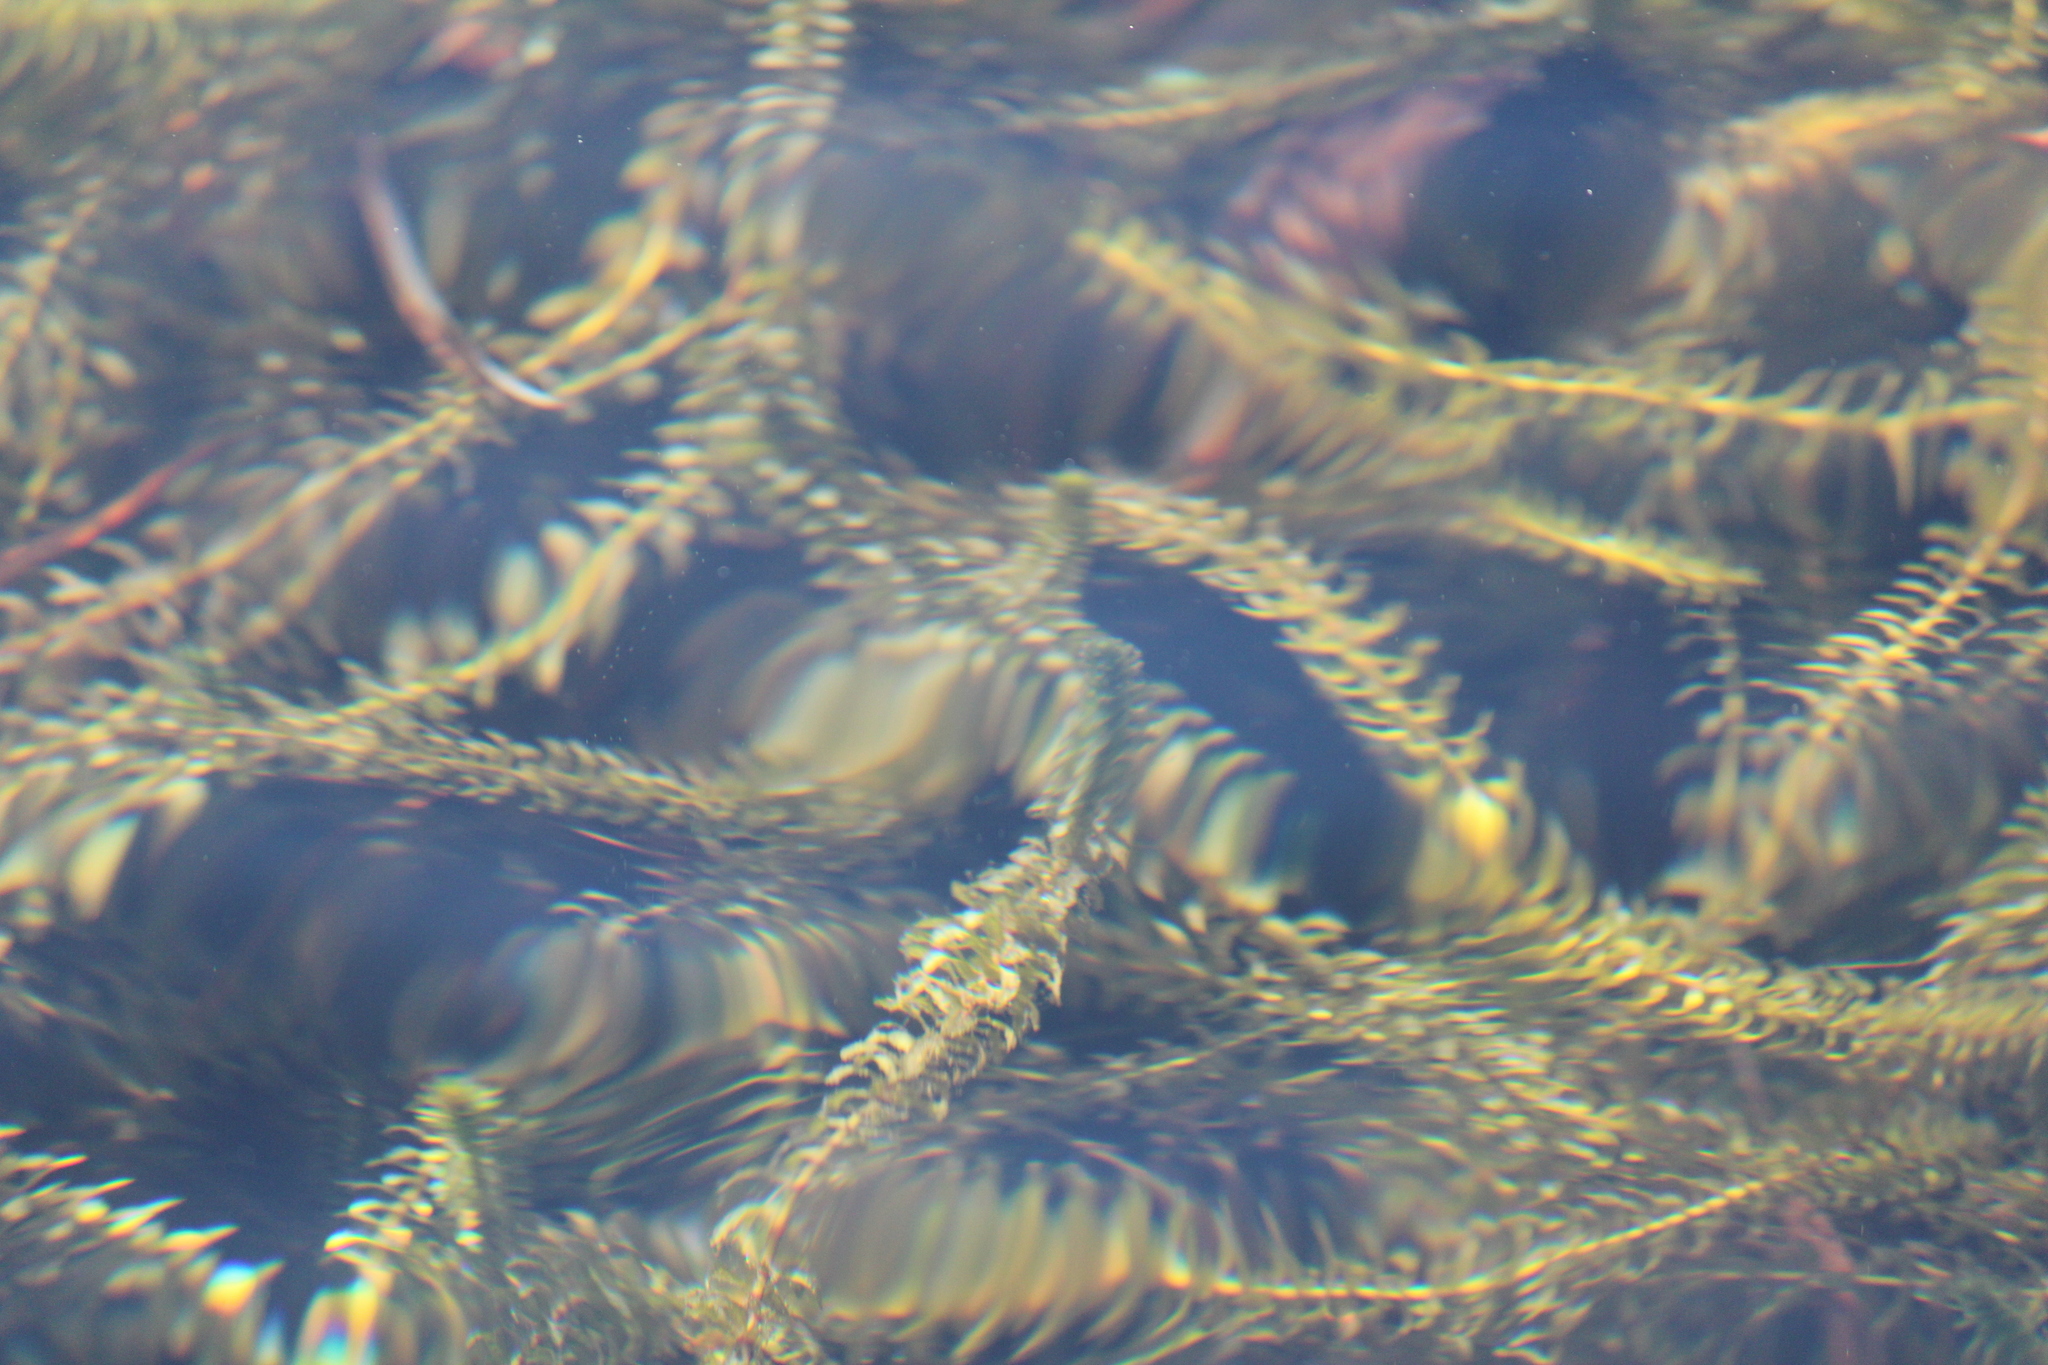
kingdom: Plantae
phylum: Tracheophyta
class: Liliopsida
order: Alismatales
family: Hydrocharitaceae
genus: Elodea
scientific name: Elodea canadensis
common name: Canadian waterweed
